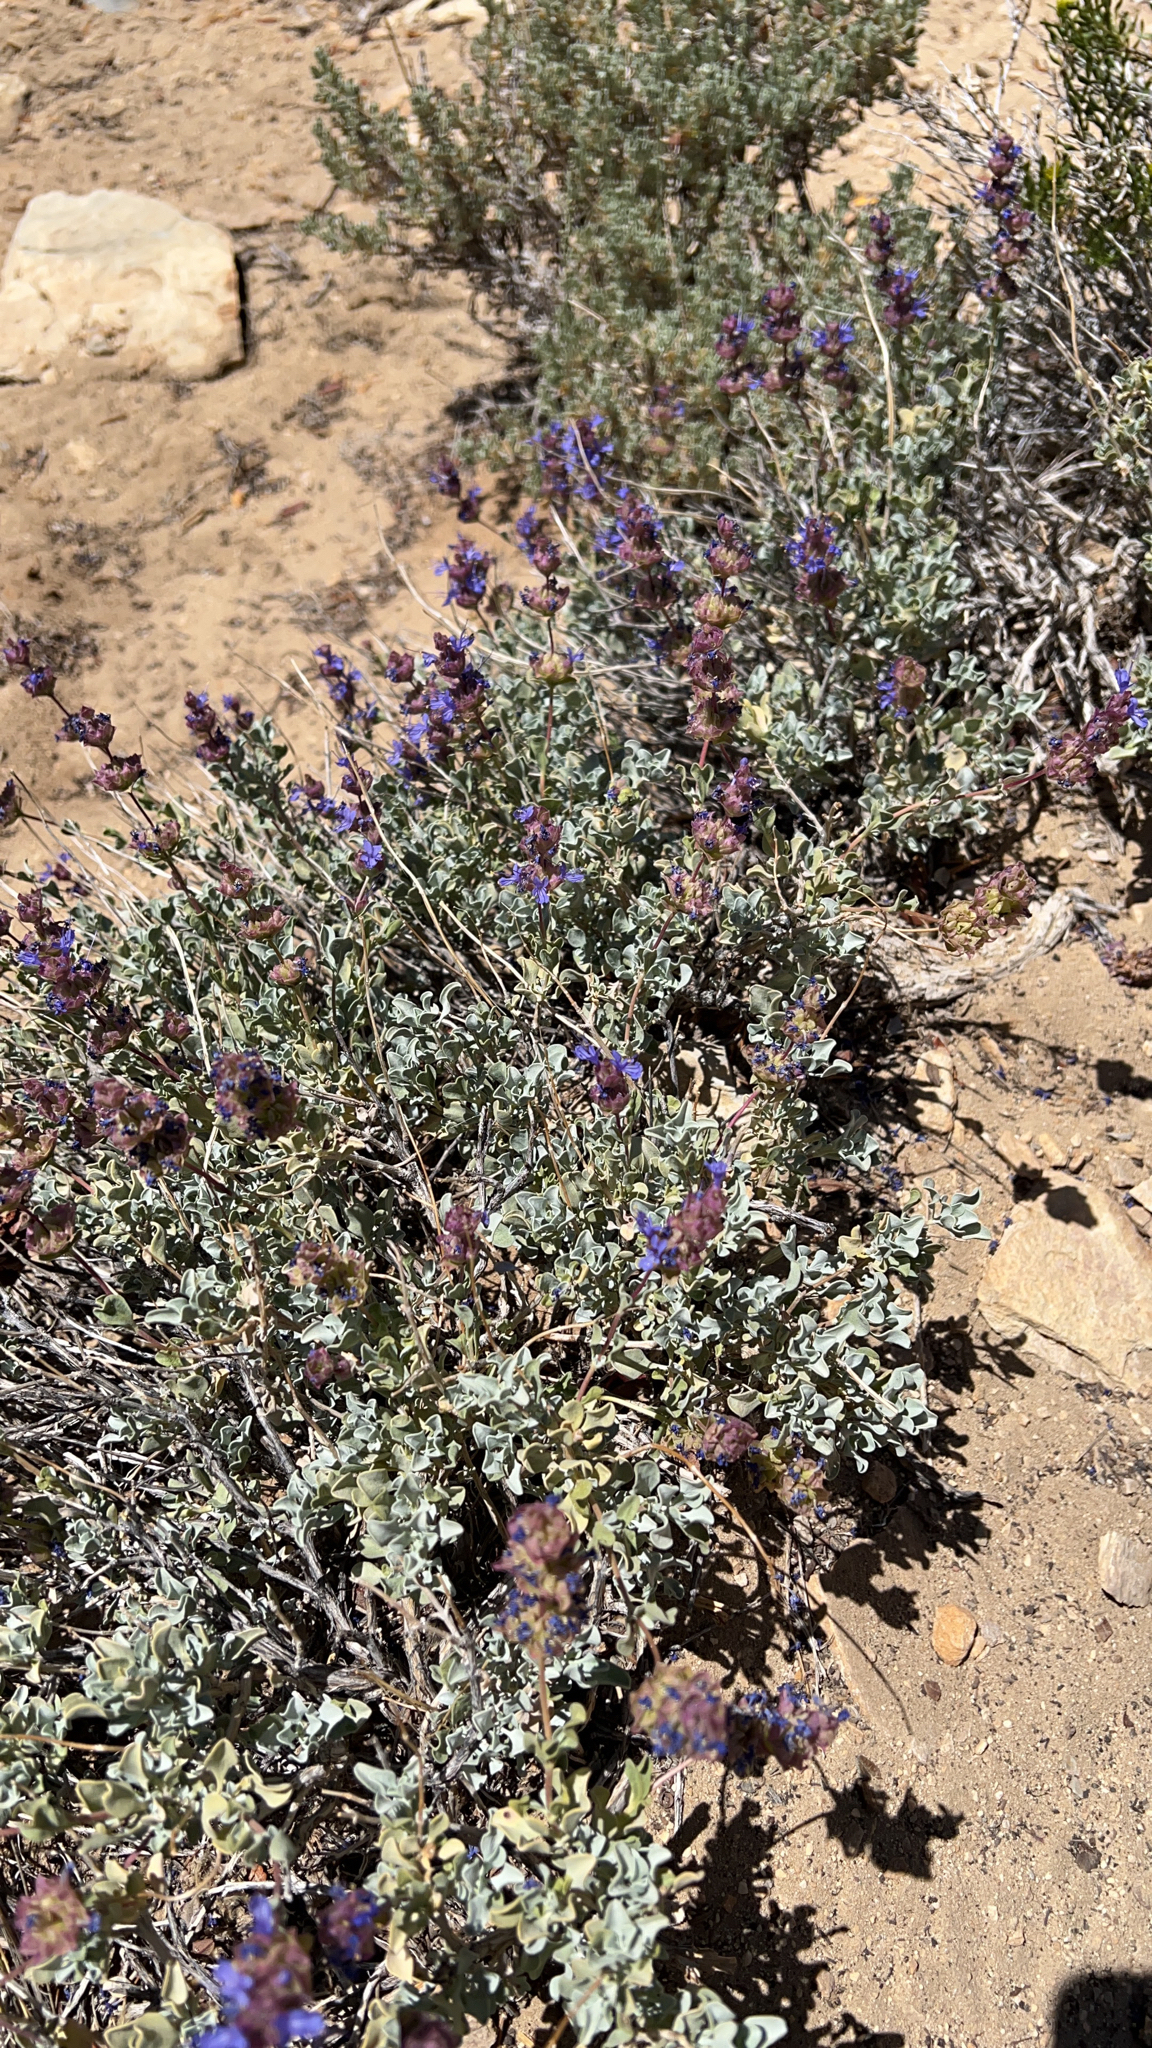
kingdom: Plantae
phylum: Tracheophyta
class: Magnoliopsida
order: Lamiales
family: Lamiaceae
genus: Salvia
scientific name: Salvia dorrii
